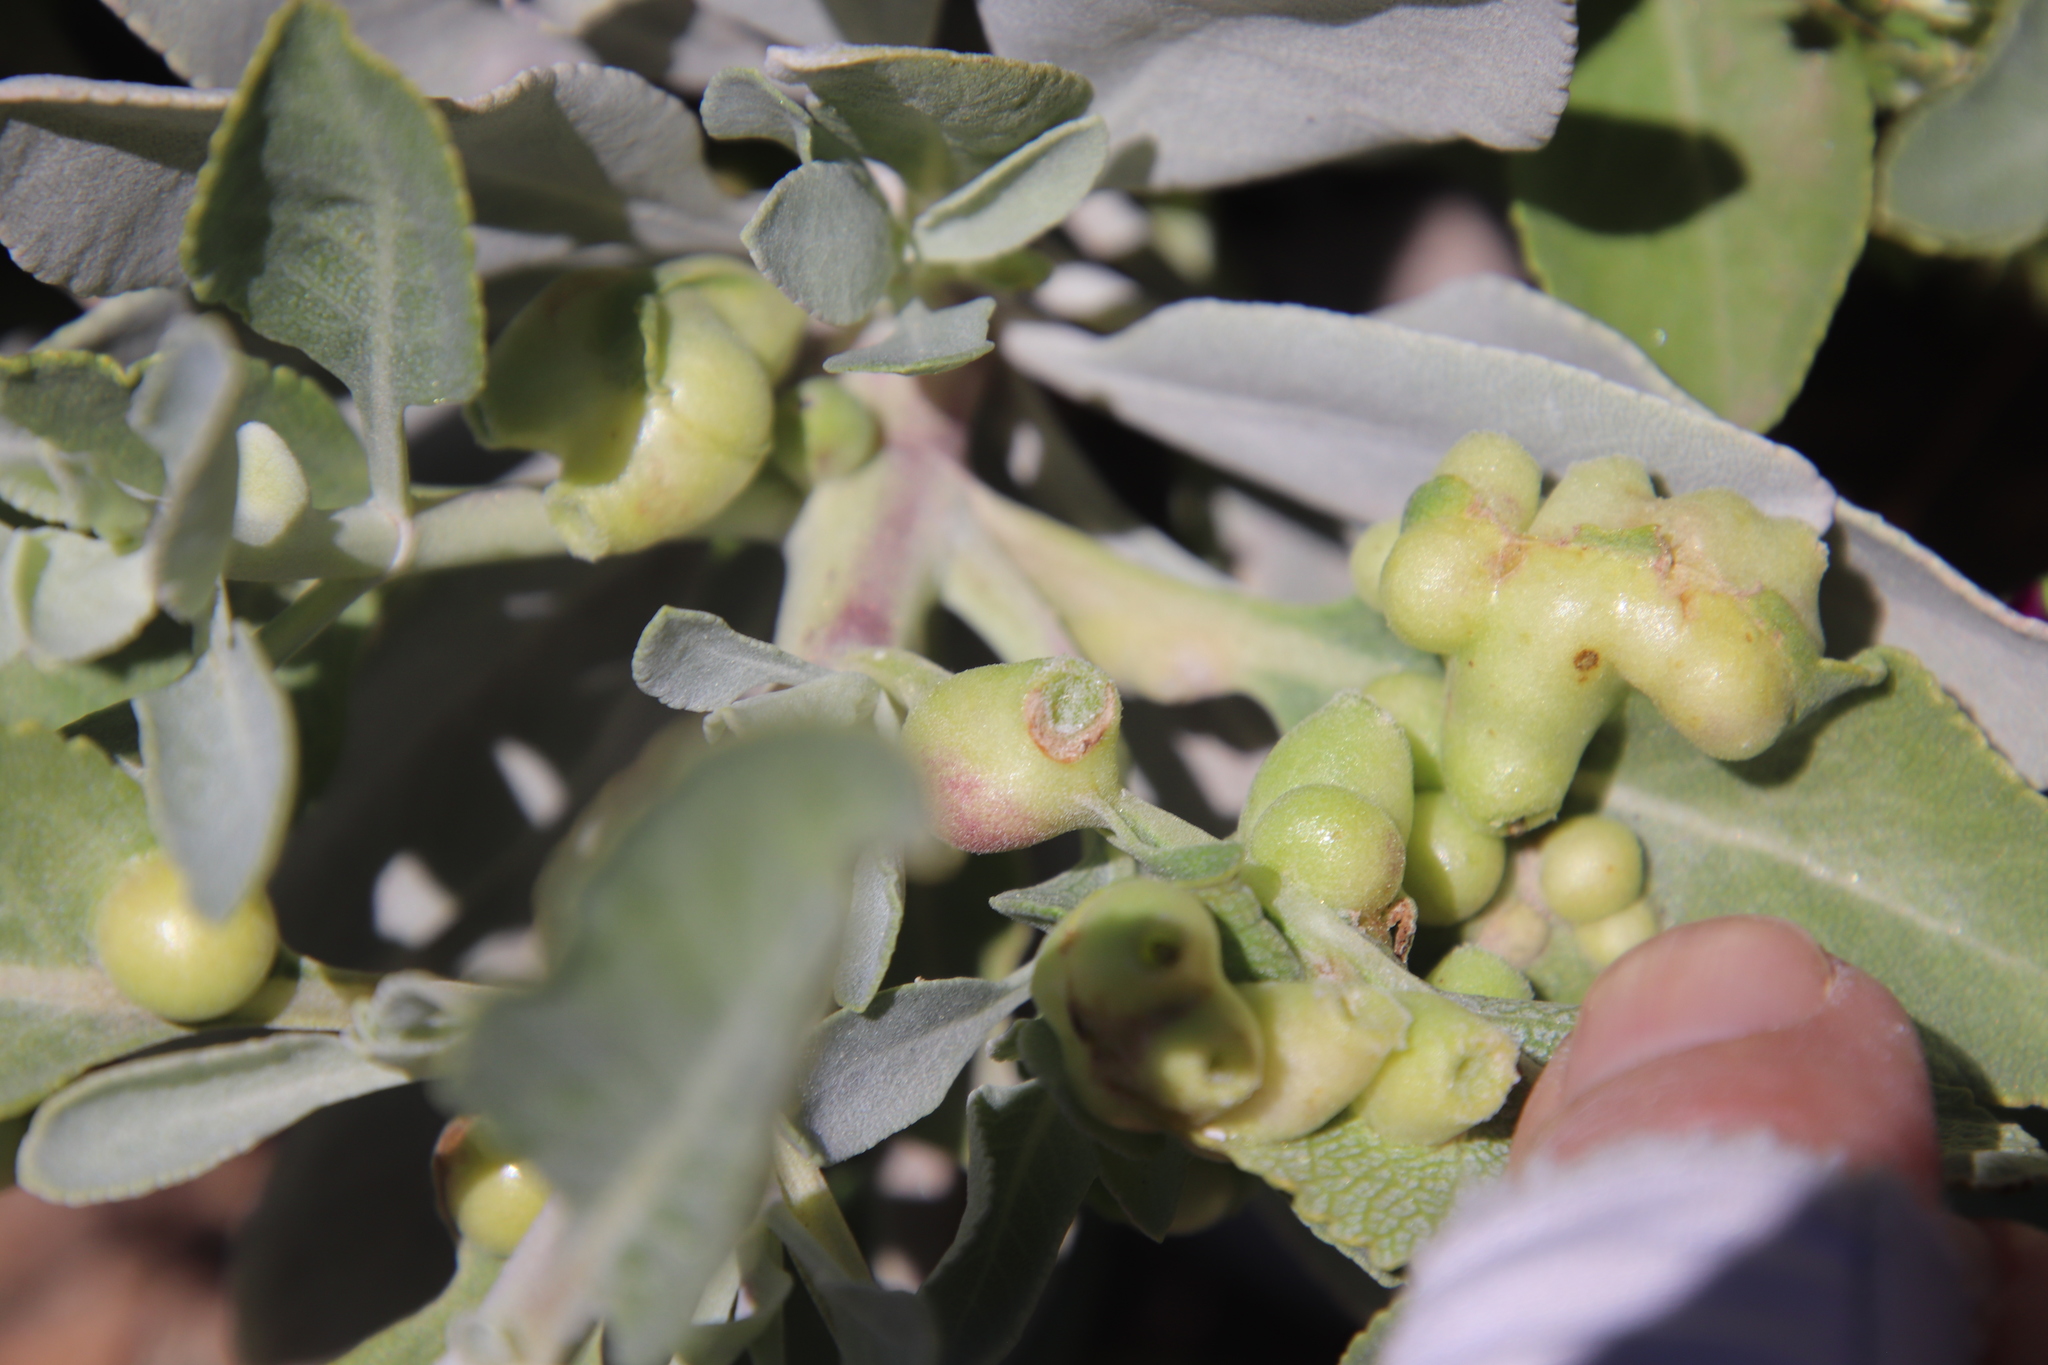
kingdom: Animalia
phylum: Arthropoda
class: Insecta
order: Diptera
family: Cecidomyiidae
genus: Rhopalomyia
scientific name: Rhopalomyia audibertiae
